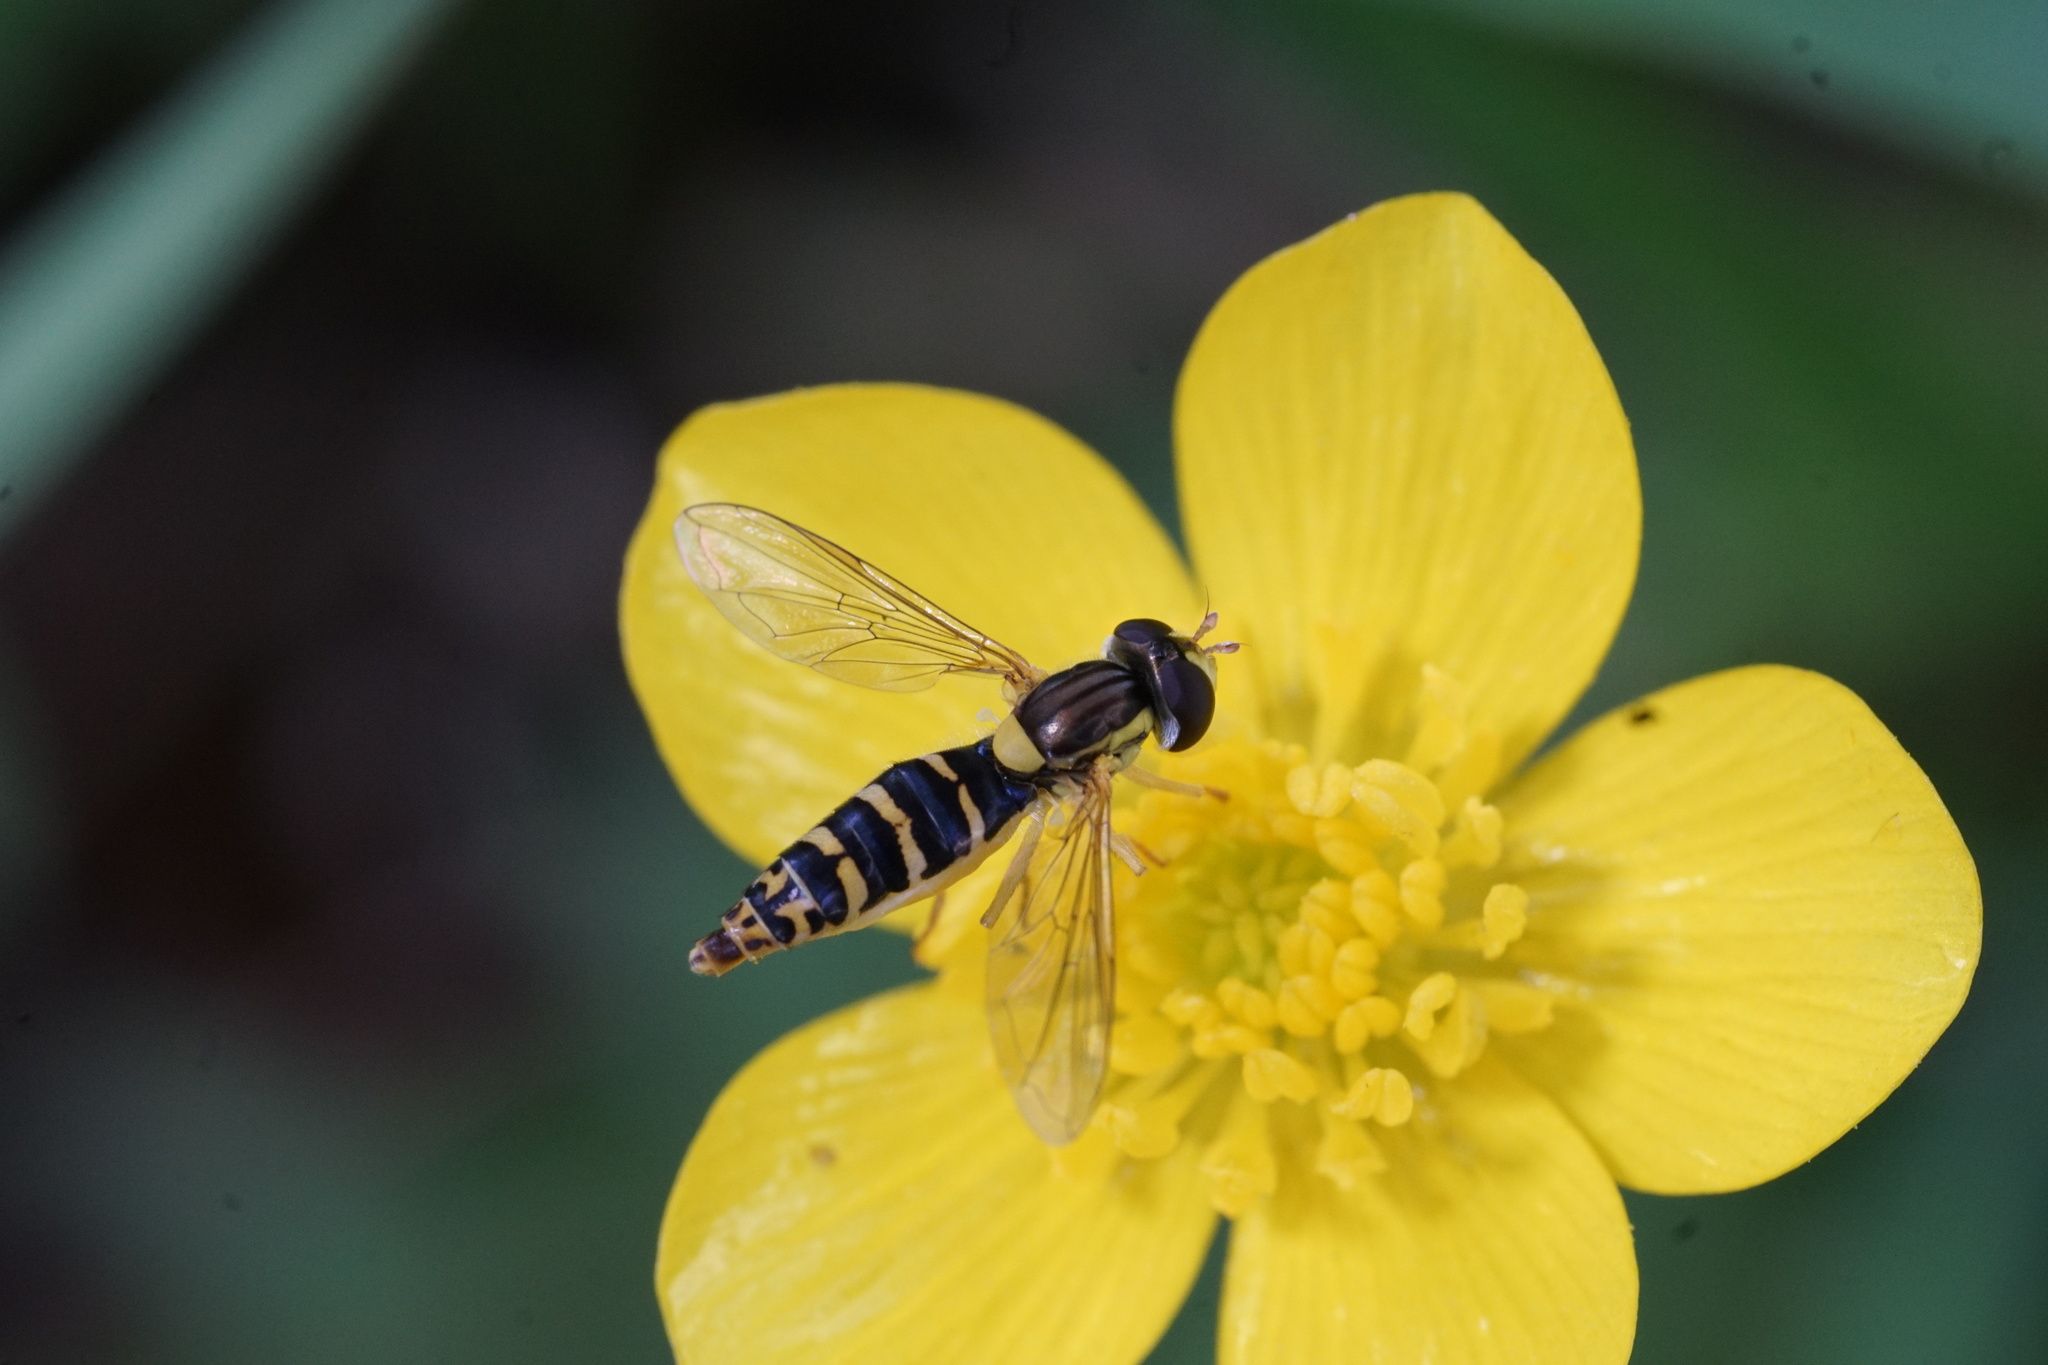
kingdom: Animalia
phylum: Arthropoda
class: Insecta
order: Diptera
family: Syrphidae
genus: Sphaerophoria
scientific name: Sphaerophoria
